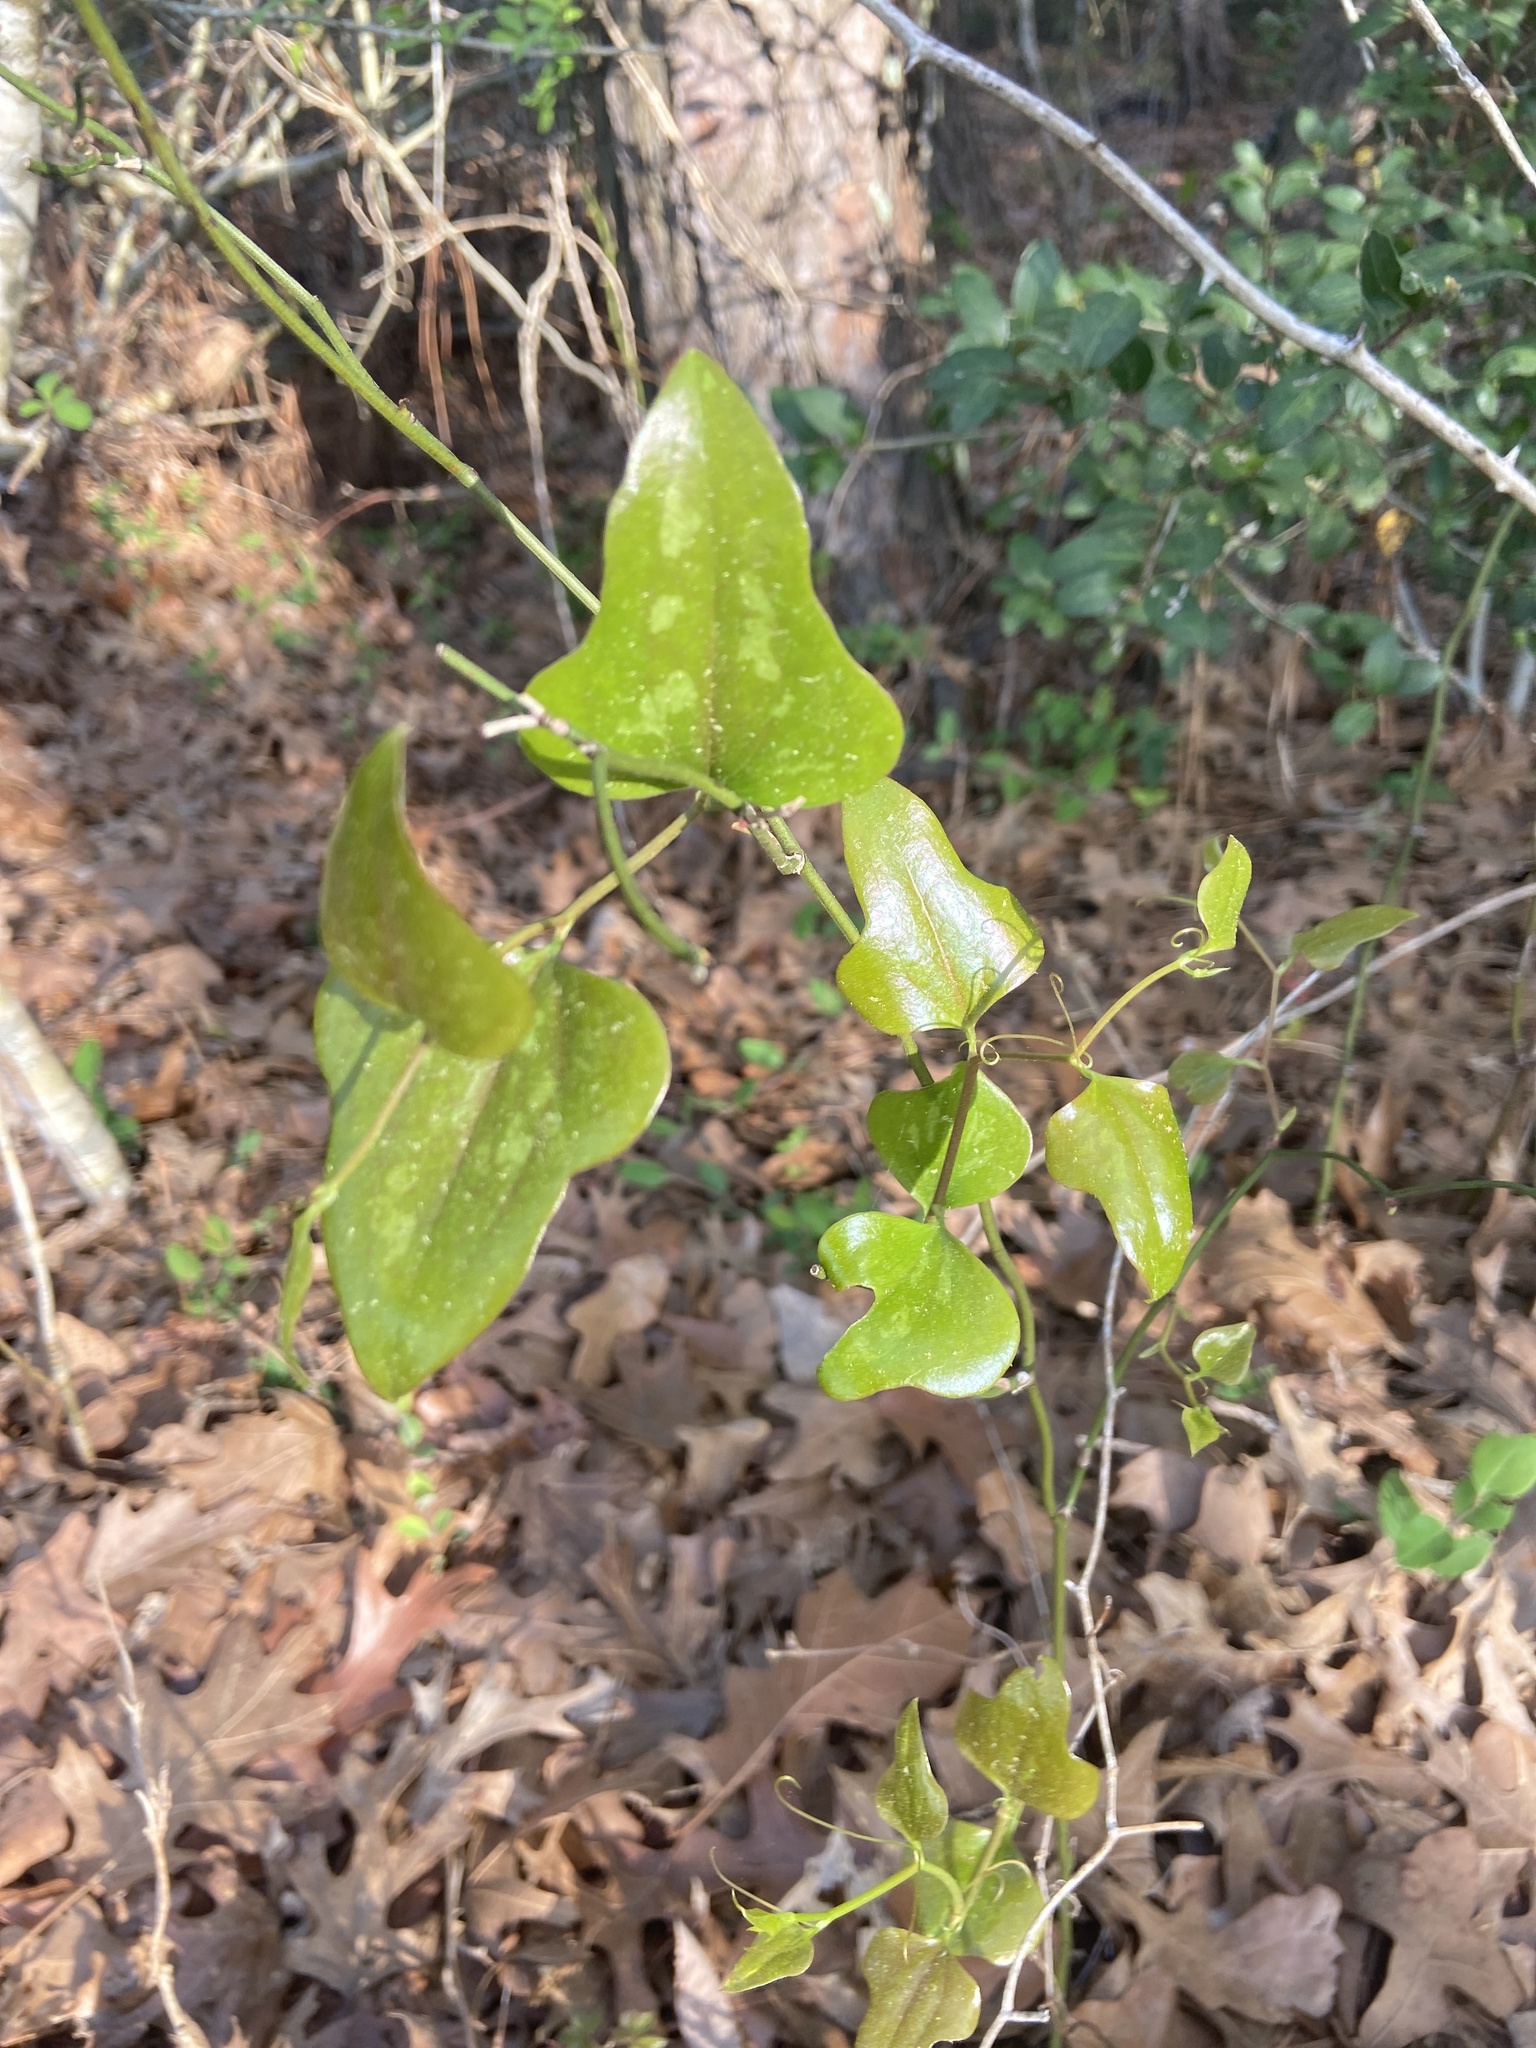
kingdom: Plantae
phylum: Tracheophyta
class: Liliopsida
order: Liliales
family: Smilacaceae
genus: Smilax
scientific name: Smilax bona-nox
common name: Catbrier
